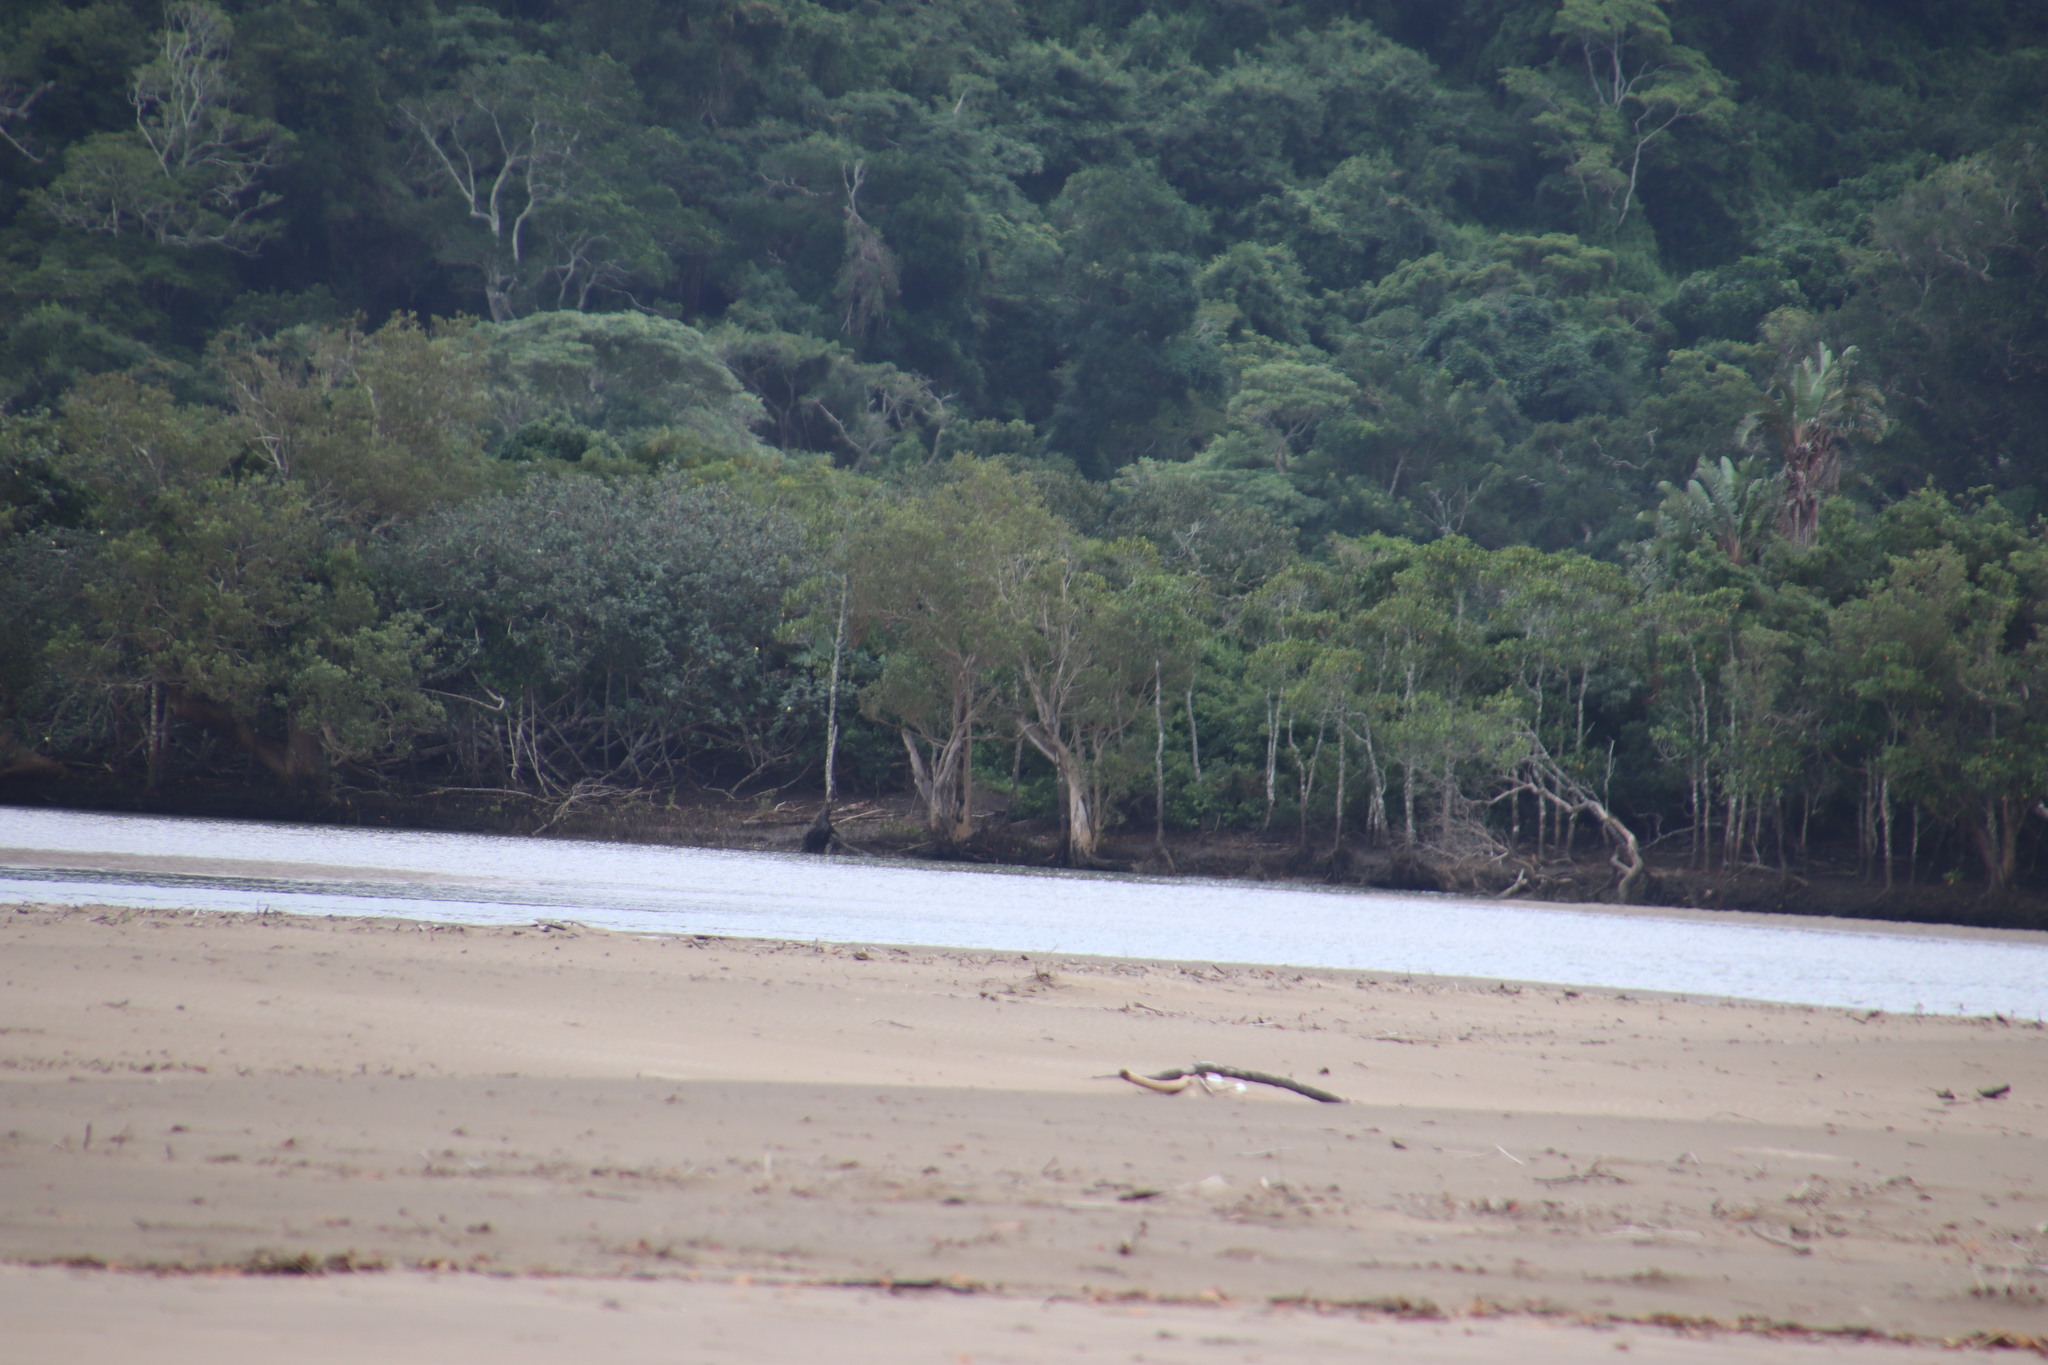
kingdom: Plantae
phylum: Tracheophyta
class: Magnoliopsida
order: Lamiales
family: Acanthaceae
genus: Avicennia
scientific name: Avicennia marina
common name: Gray mangrove
